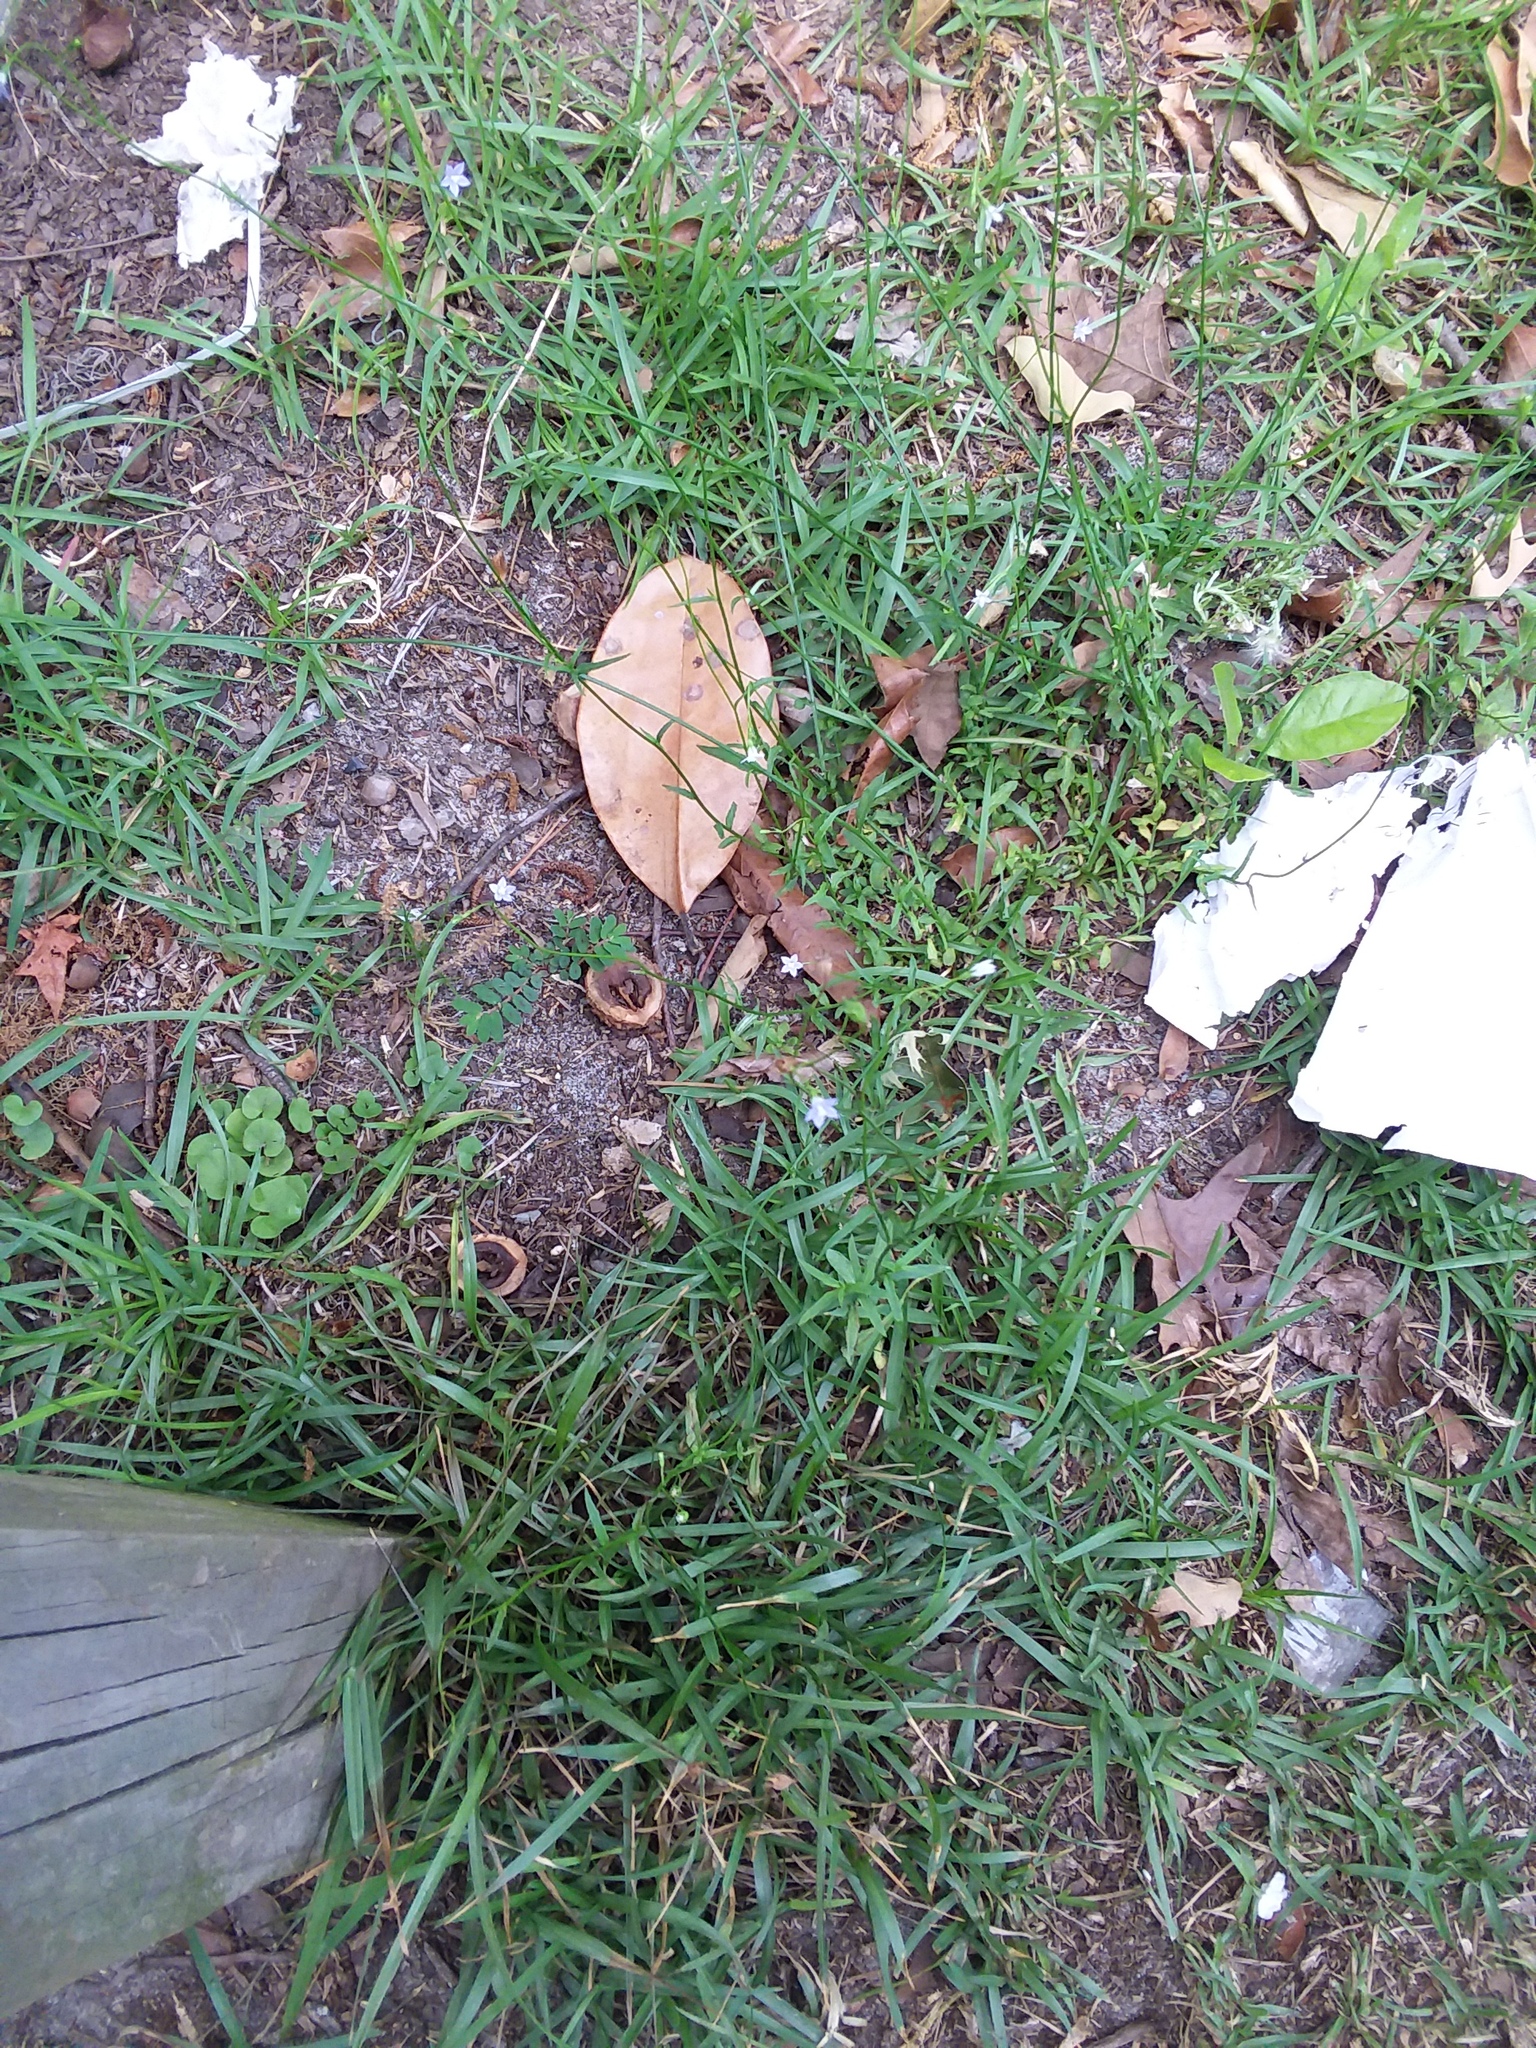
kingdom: Plantae
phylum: Tracheophyta
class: Magnoliopsida
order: Asterales
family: Campanulaceae
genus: Wahlenbergia
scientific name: Wahlenbergia marginata
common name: Southern rockbell
